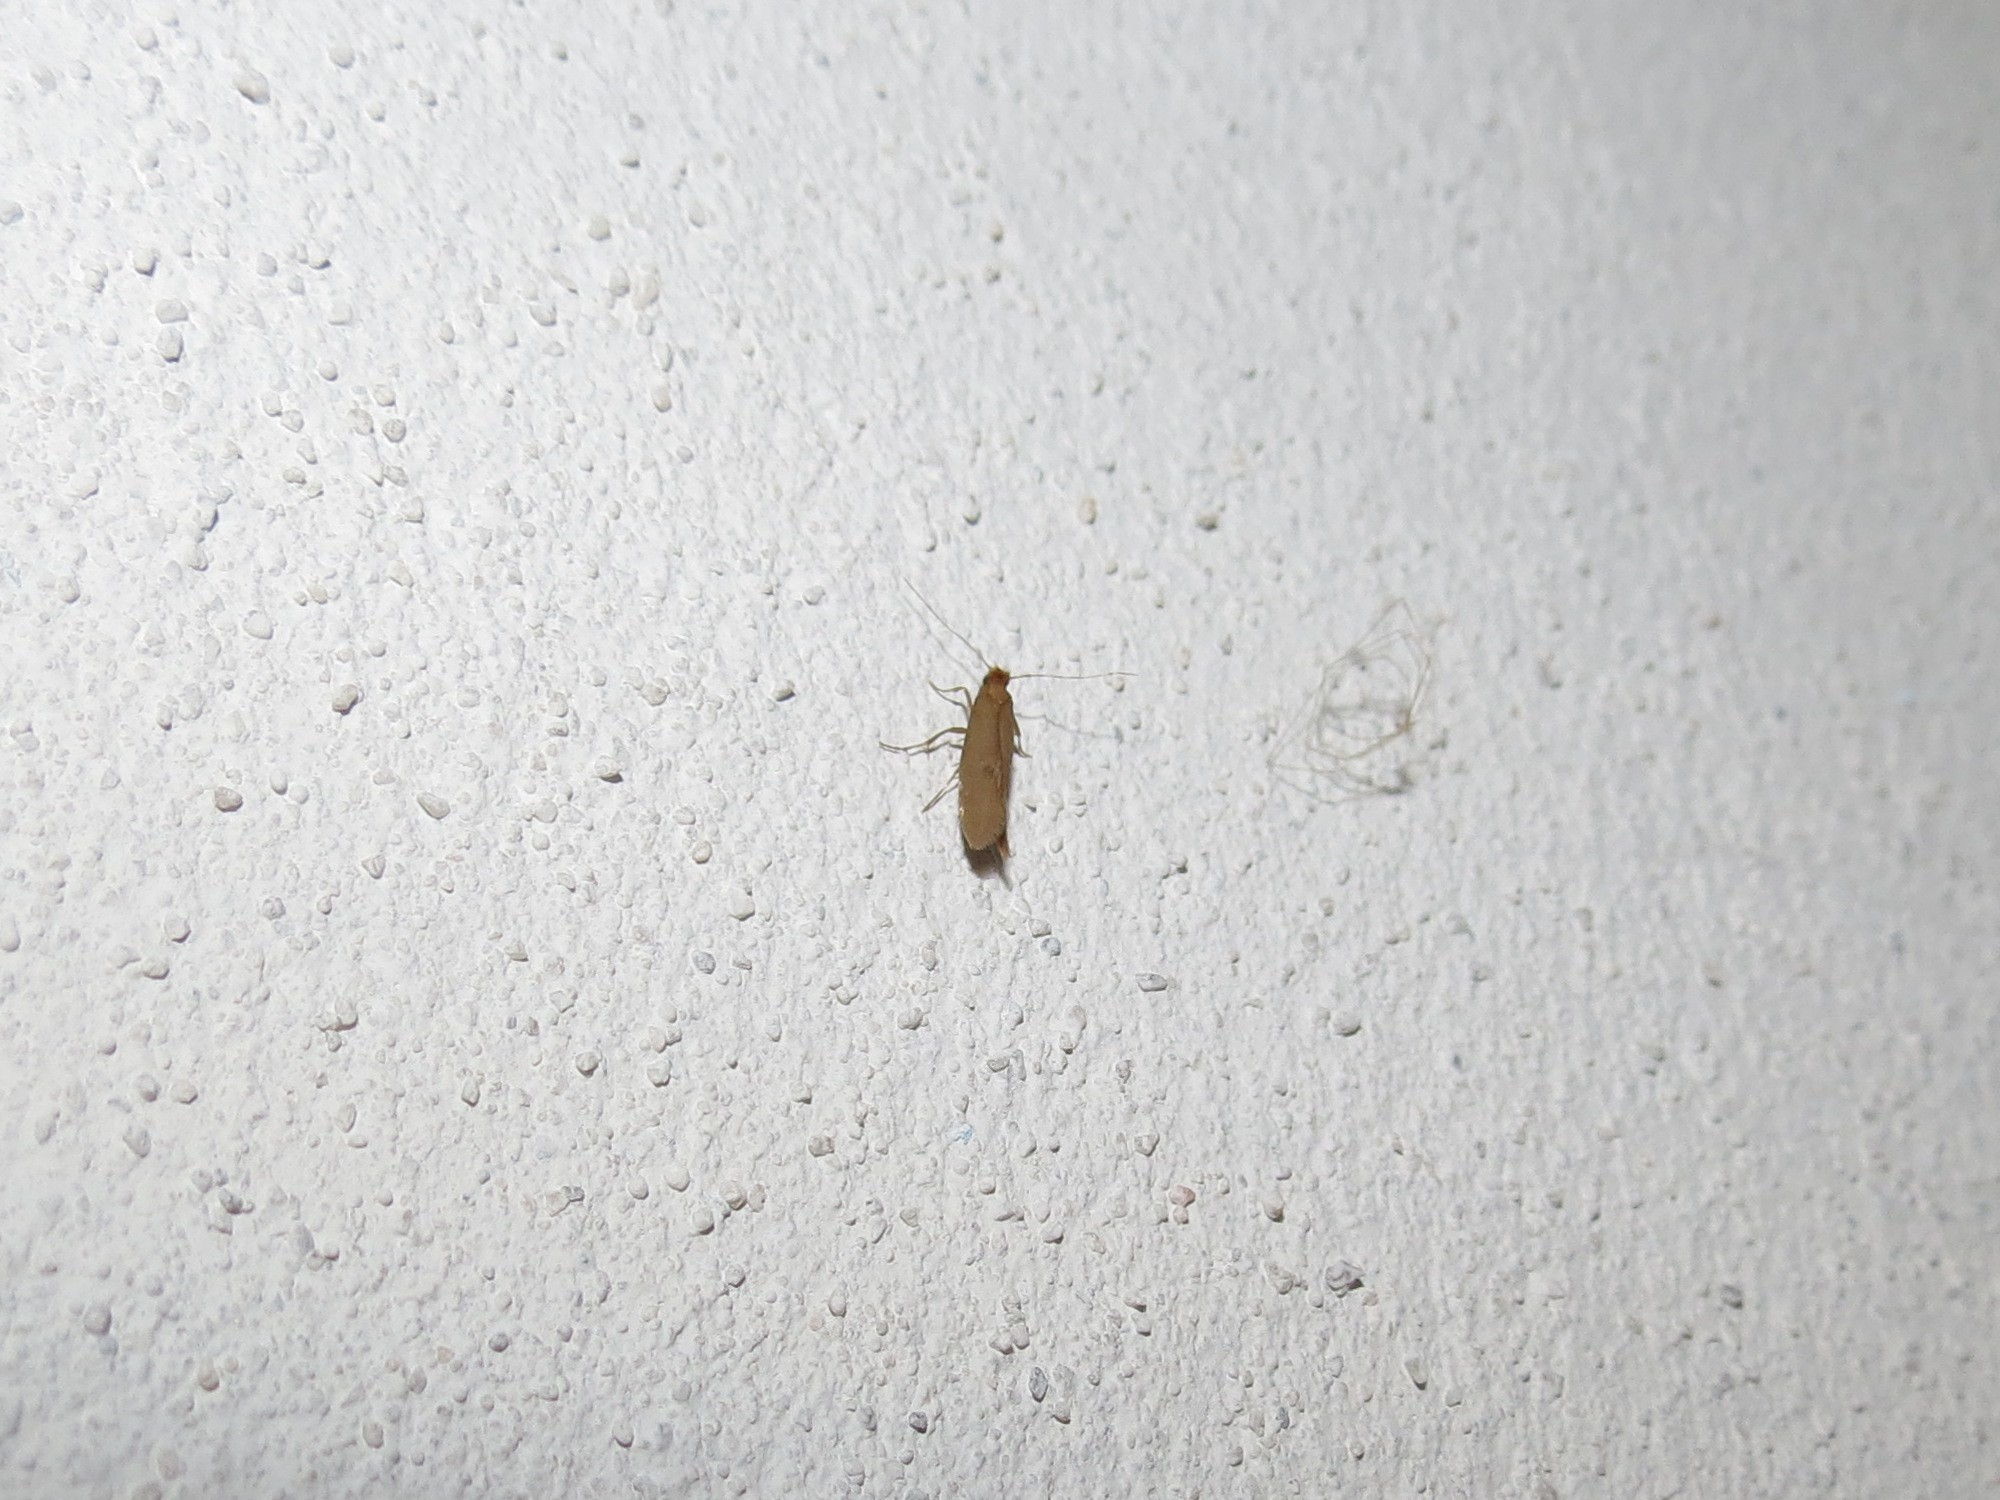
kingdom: Animalia
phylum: Arthropoda
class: Insecta
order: Lepidoptera
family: Tineidae
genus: Tineola
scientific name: Tineola bisselliella
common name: Webbing clothes moth
